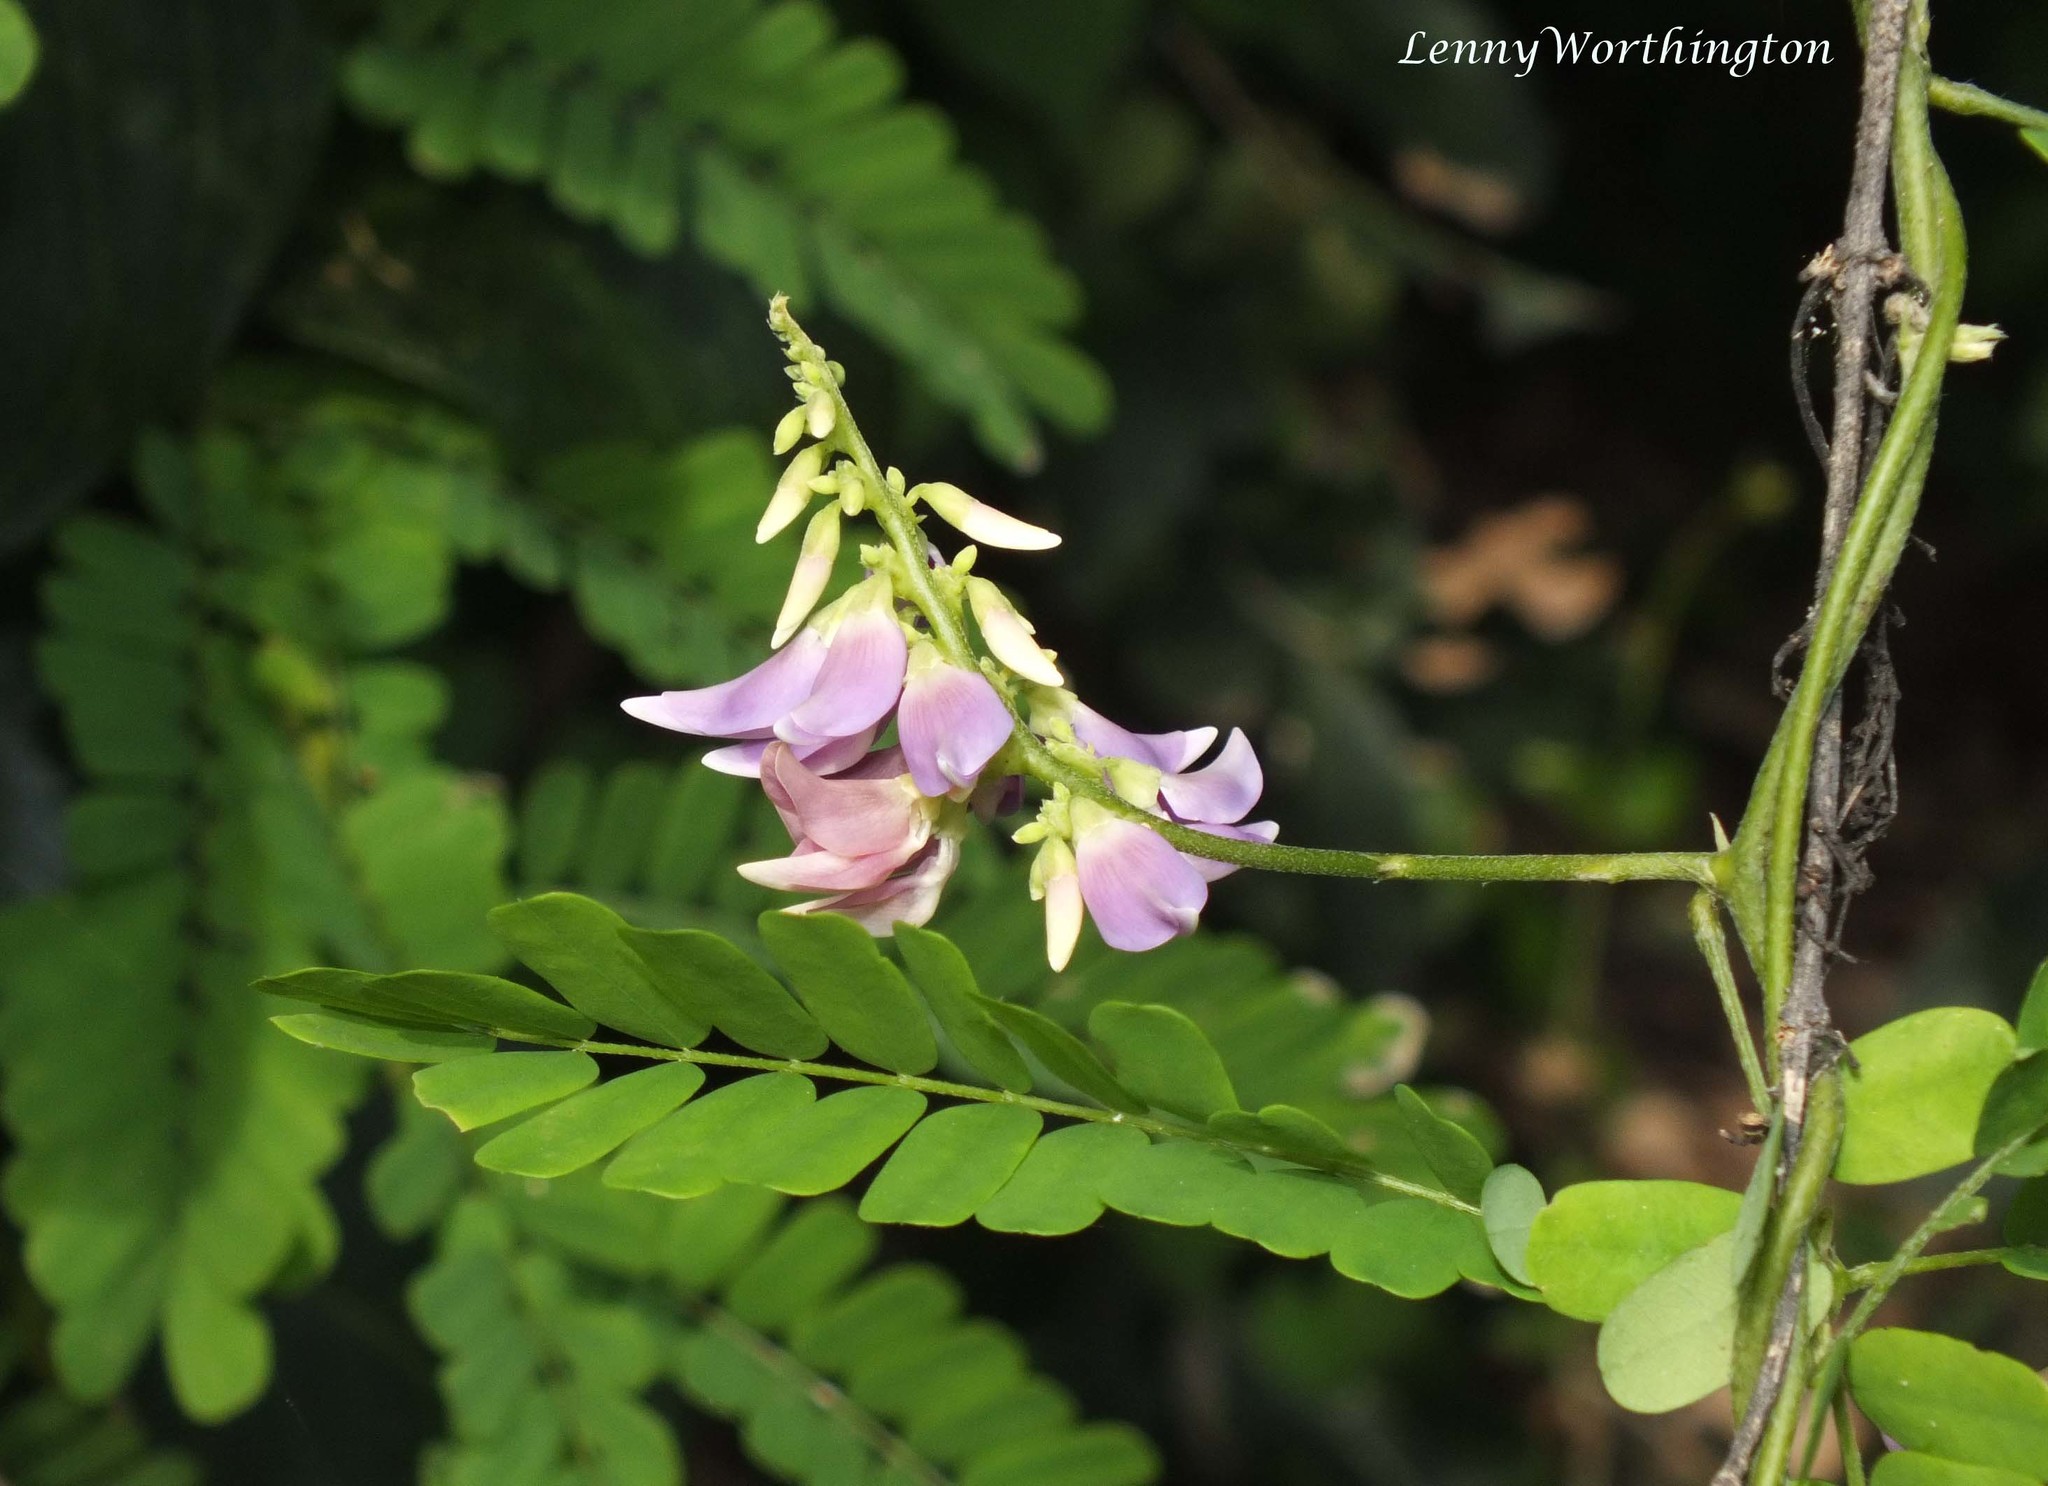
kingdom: Plantae
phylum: Tracheophyta
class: Magnoliopsida
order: Fabales
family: Fabaceae
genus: Abrus
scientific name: Abrus precatorius
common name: Rosarypea
